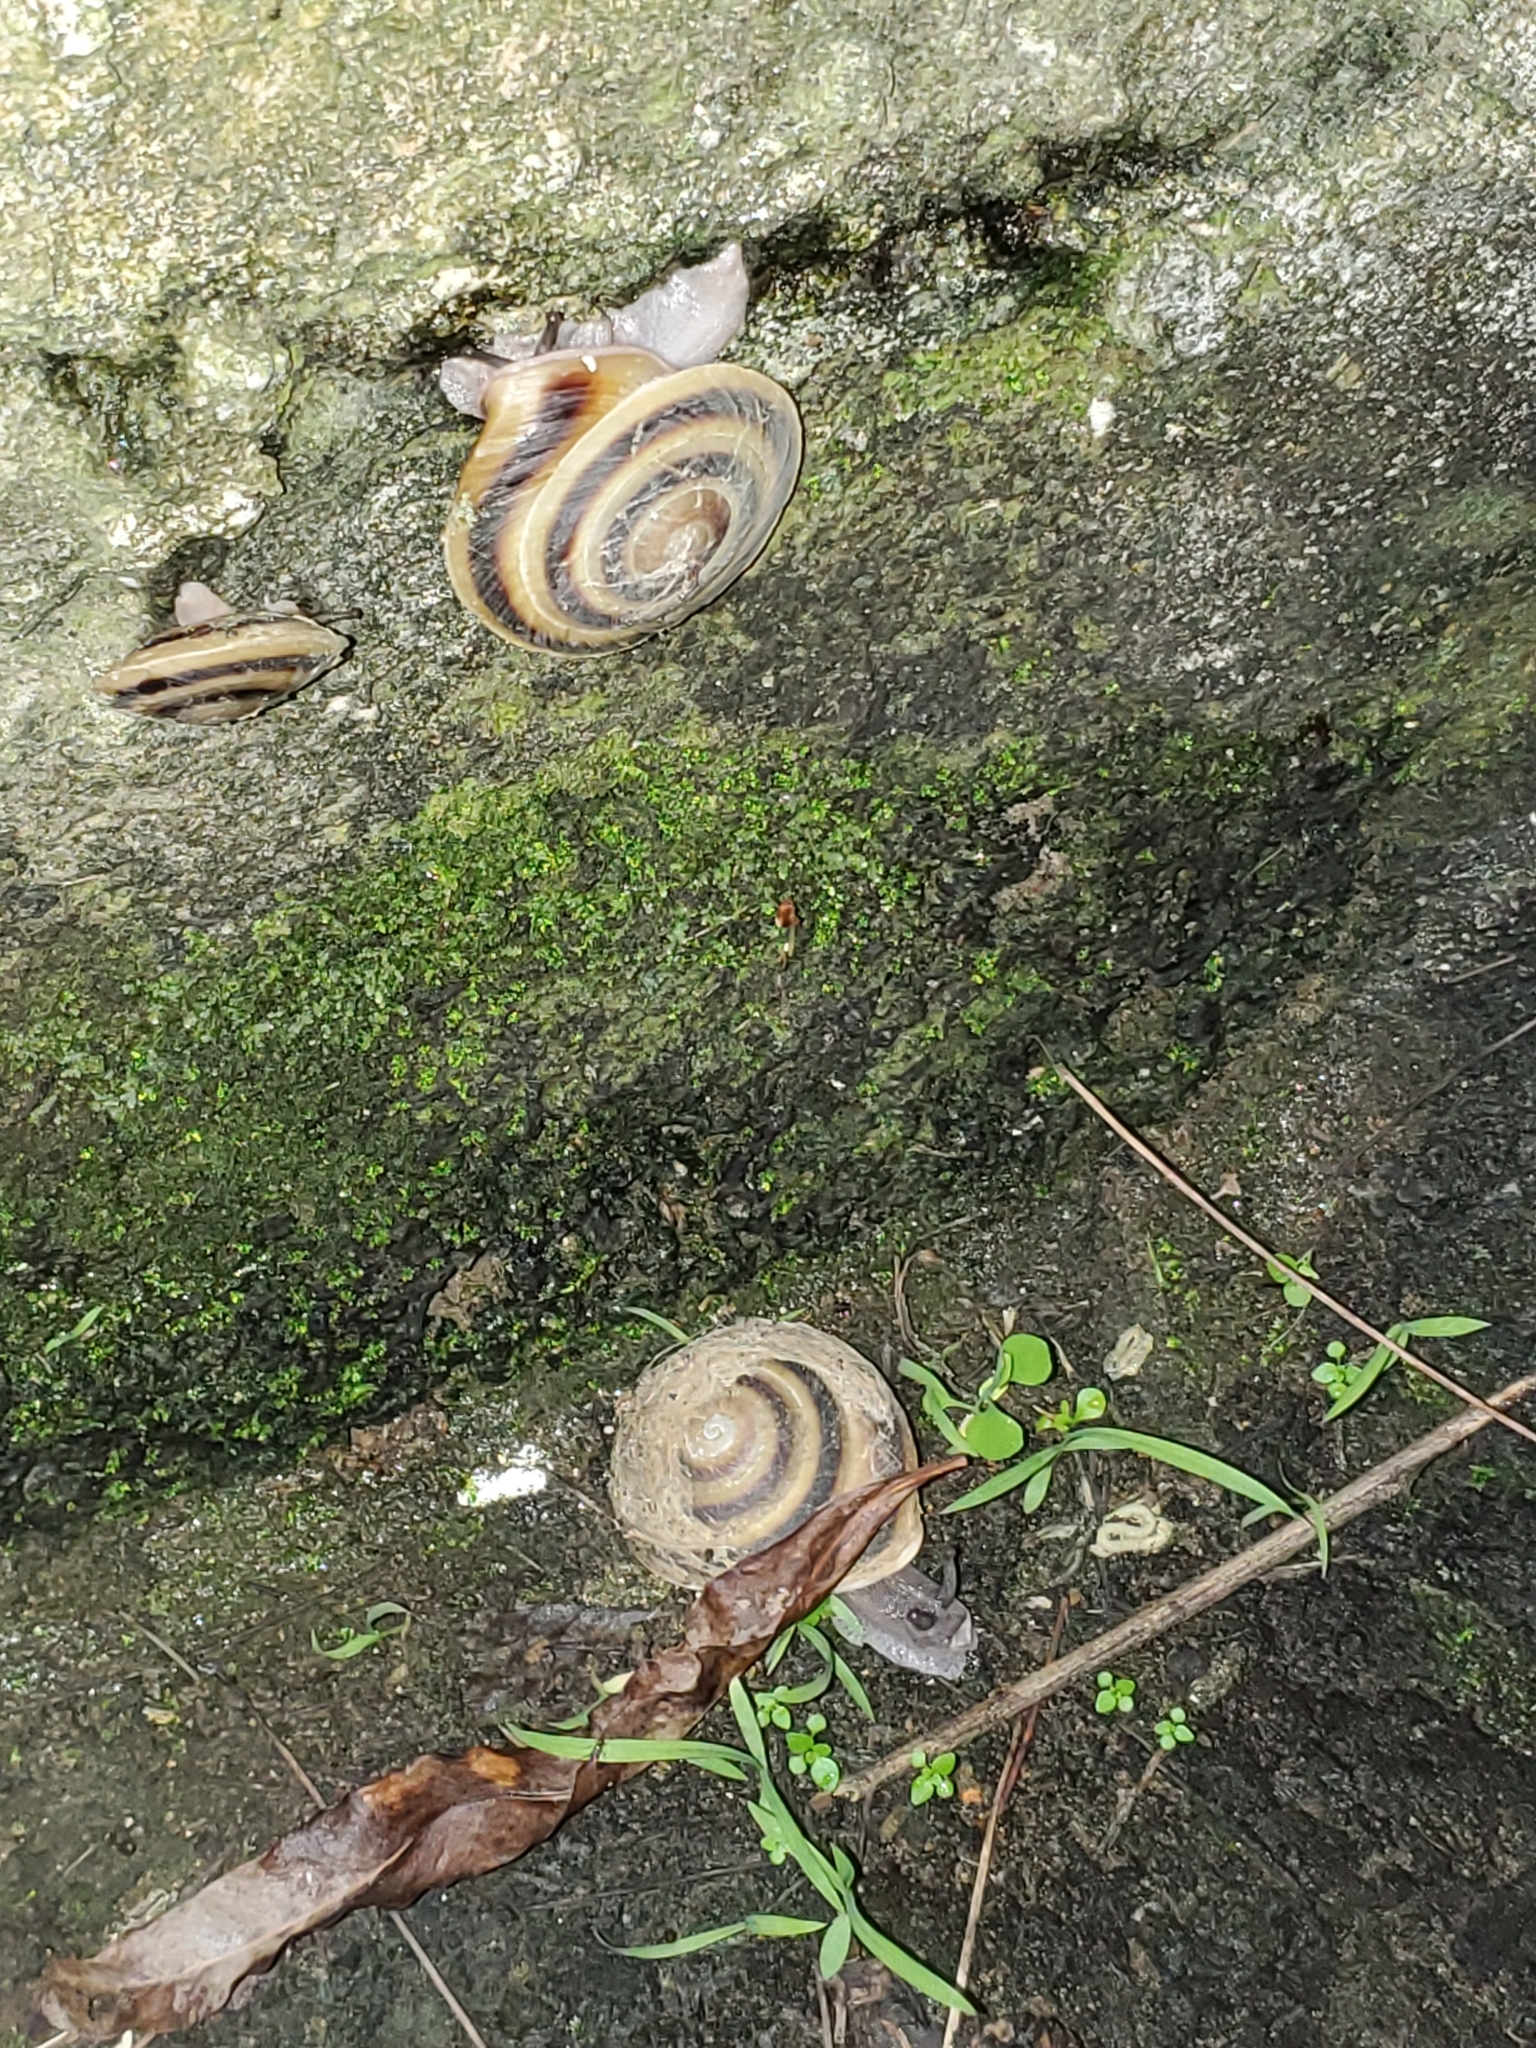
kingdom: Animalia
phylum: Mollusca
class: Gastropoda
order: Stylommatophora
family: Solaropsidae
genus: Caracolus
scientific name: Caracolus marginella
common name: Banded caracol
